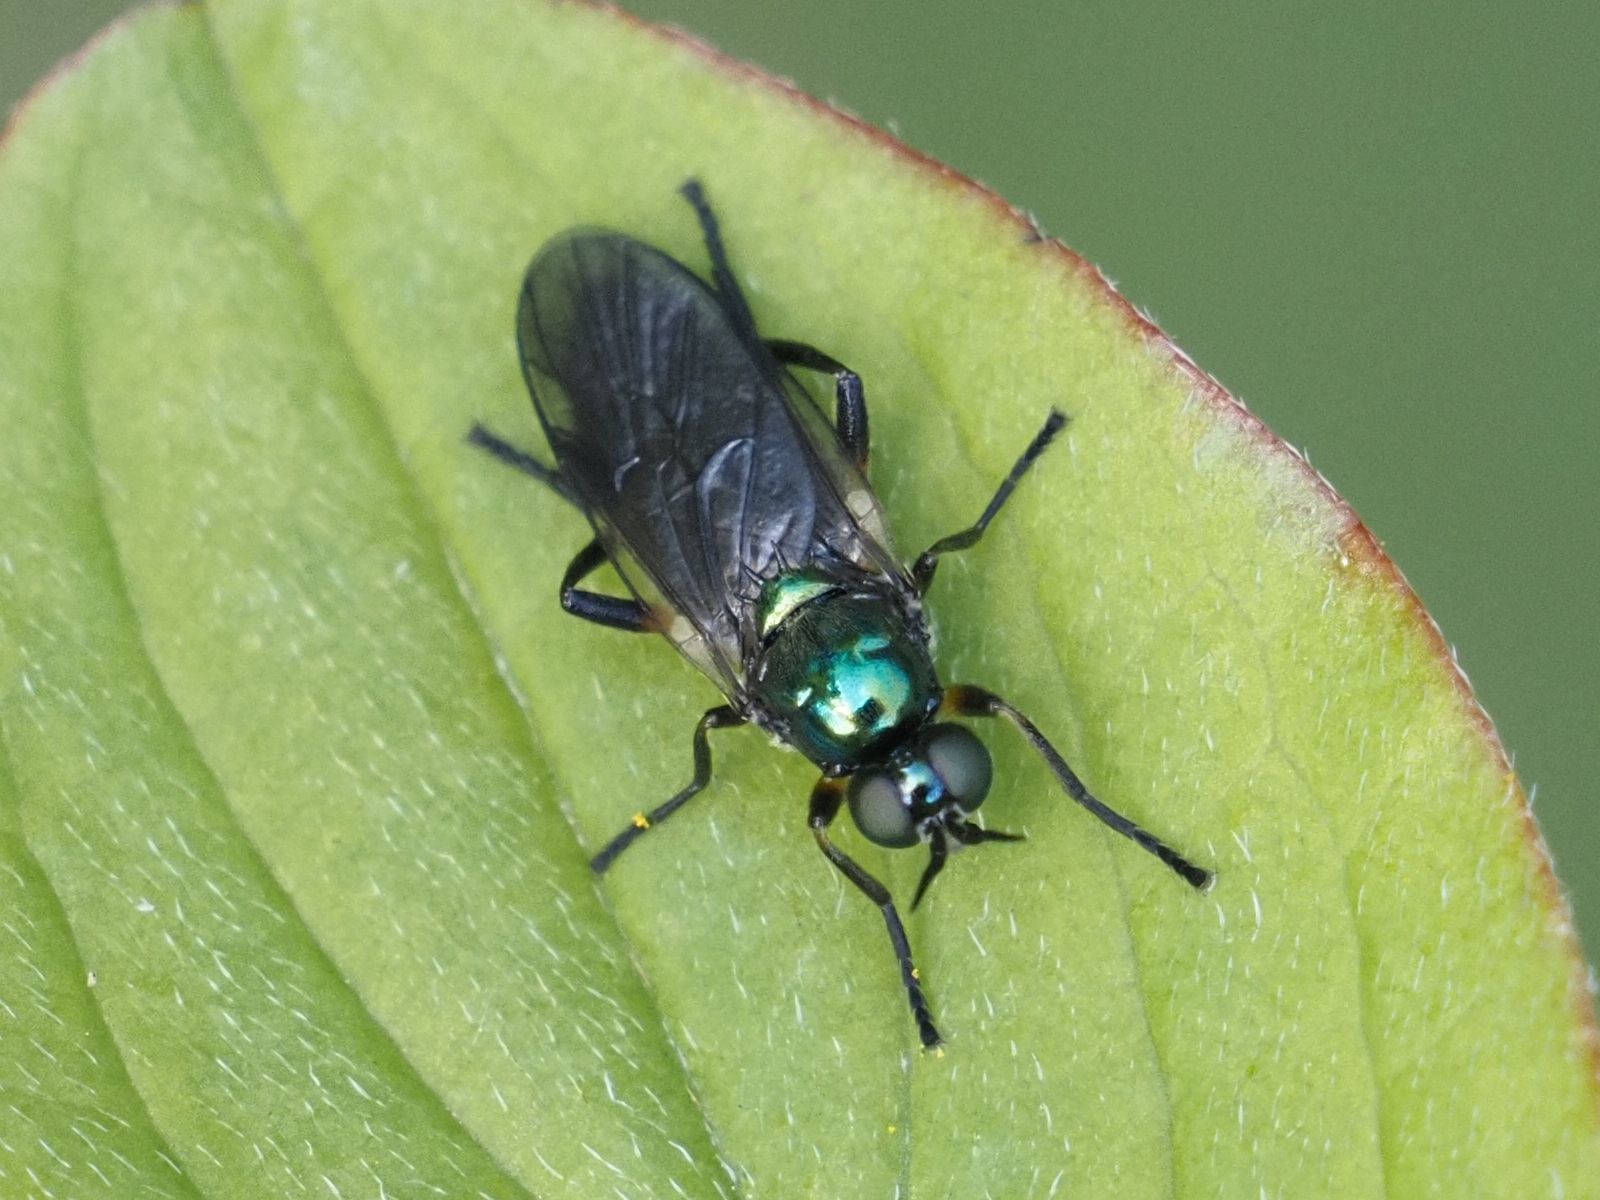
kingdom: Animalia
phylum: Arthropoda
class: Insecta
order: Diptera
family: Stratiomyidae
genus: Actina
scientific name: Actina chalybea
